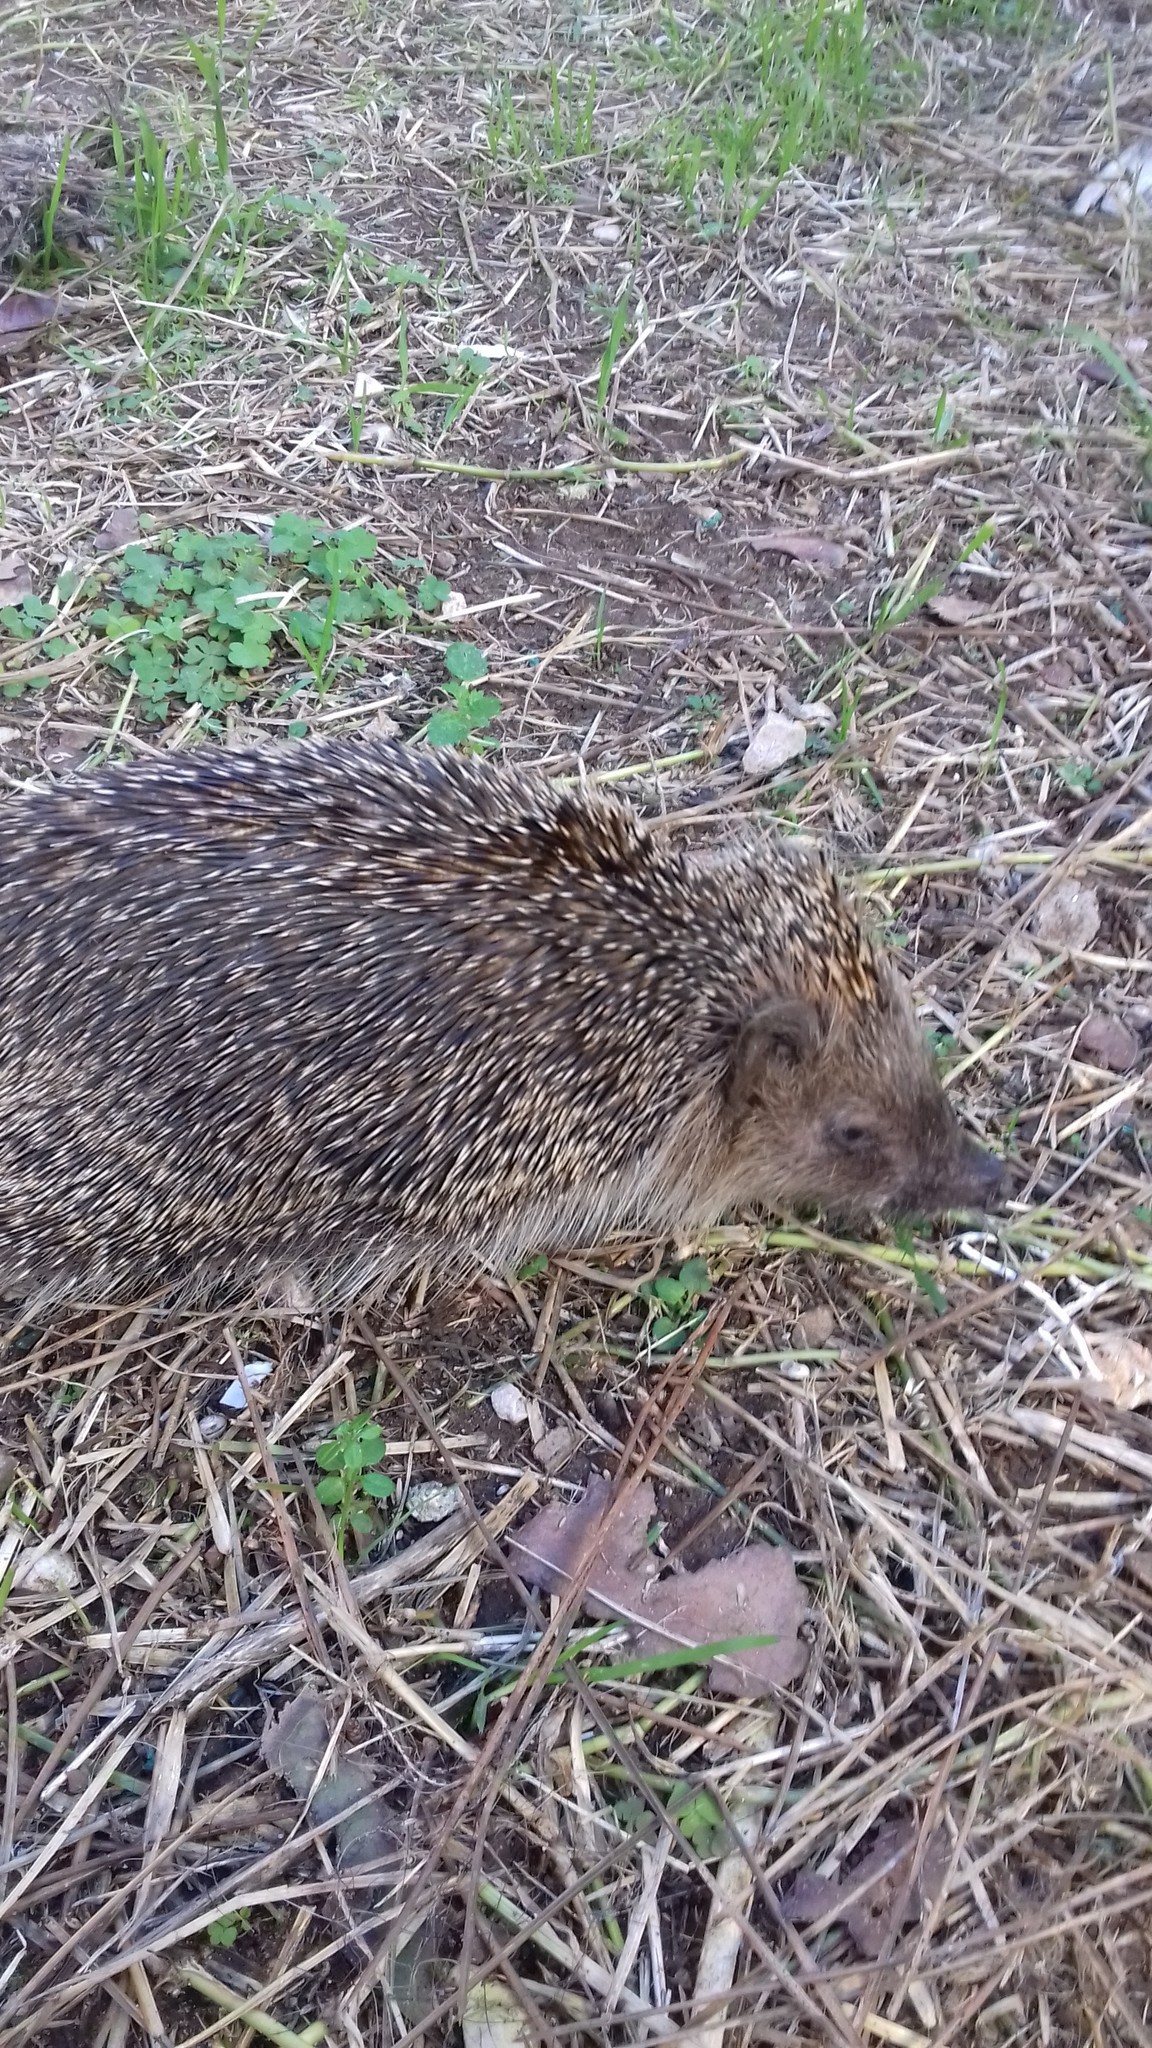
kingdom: Animalia
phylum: Chordata
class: Mammalia
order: Erinaceomorpha
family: Erinaceidae
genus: Erinaceus
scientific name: Erinaceus europaeus
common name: West european hedgehog
